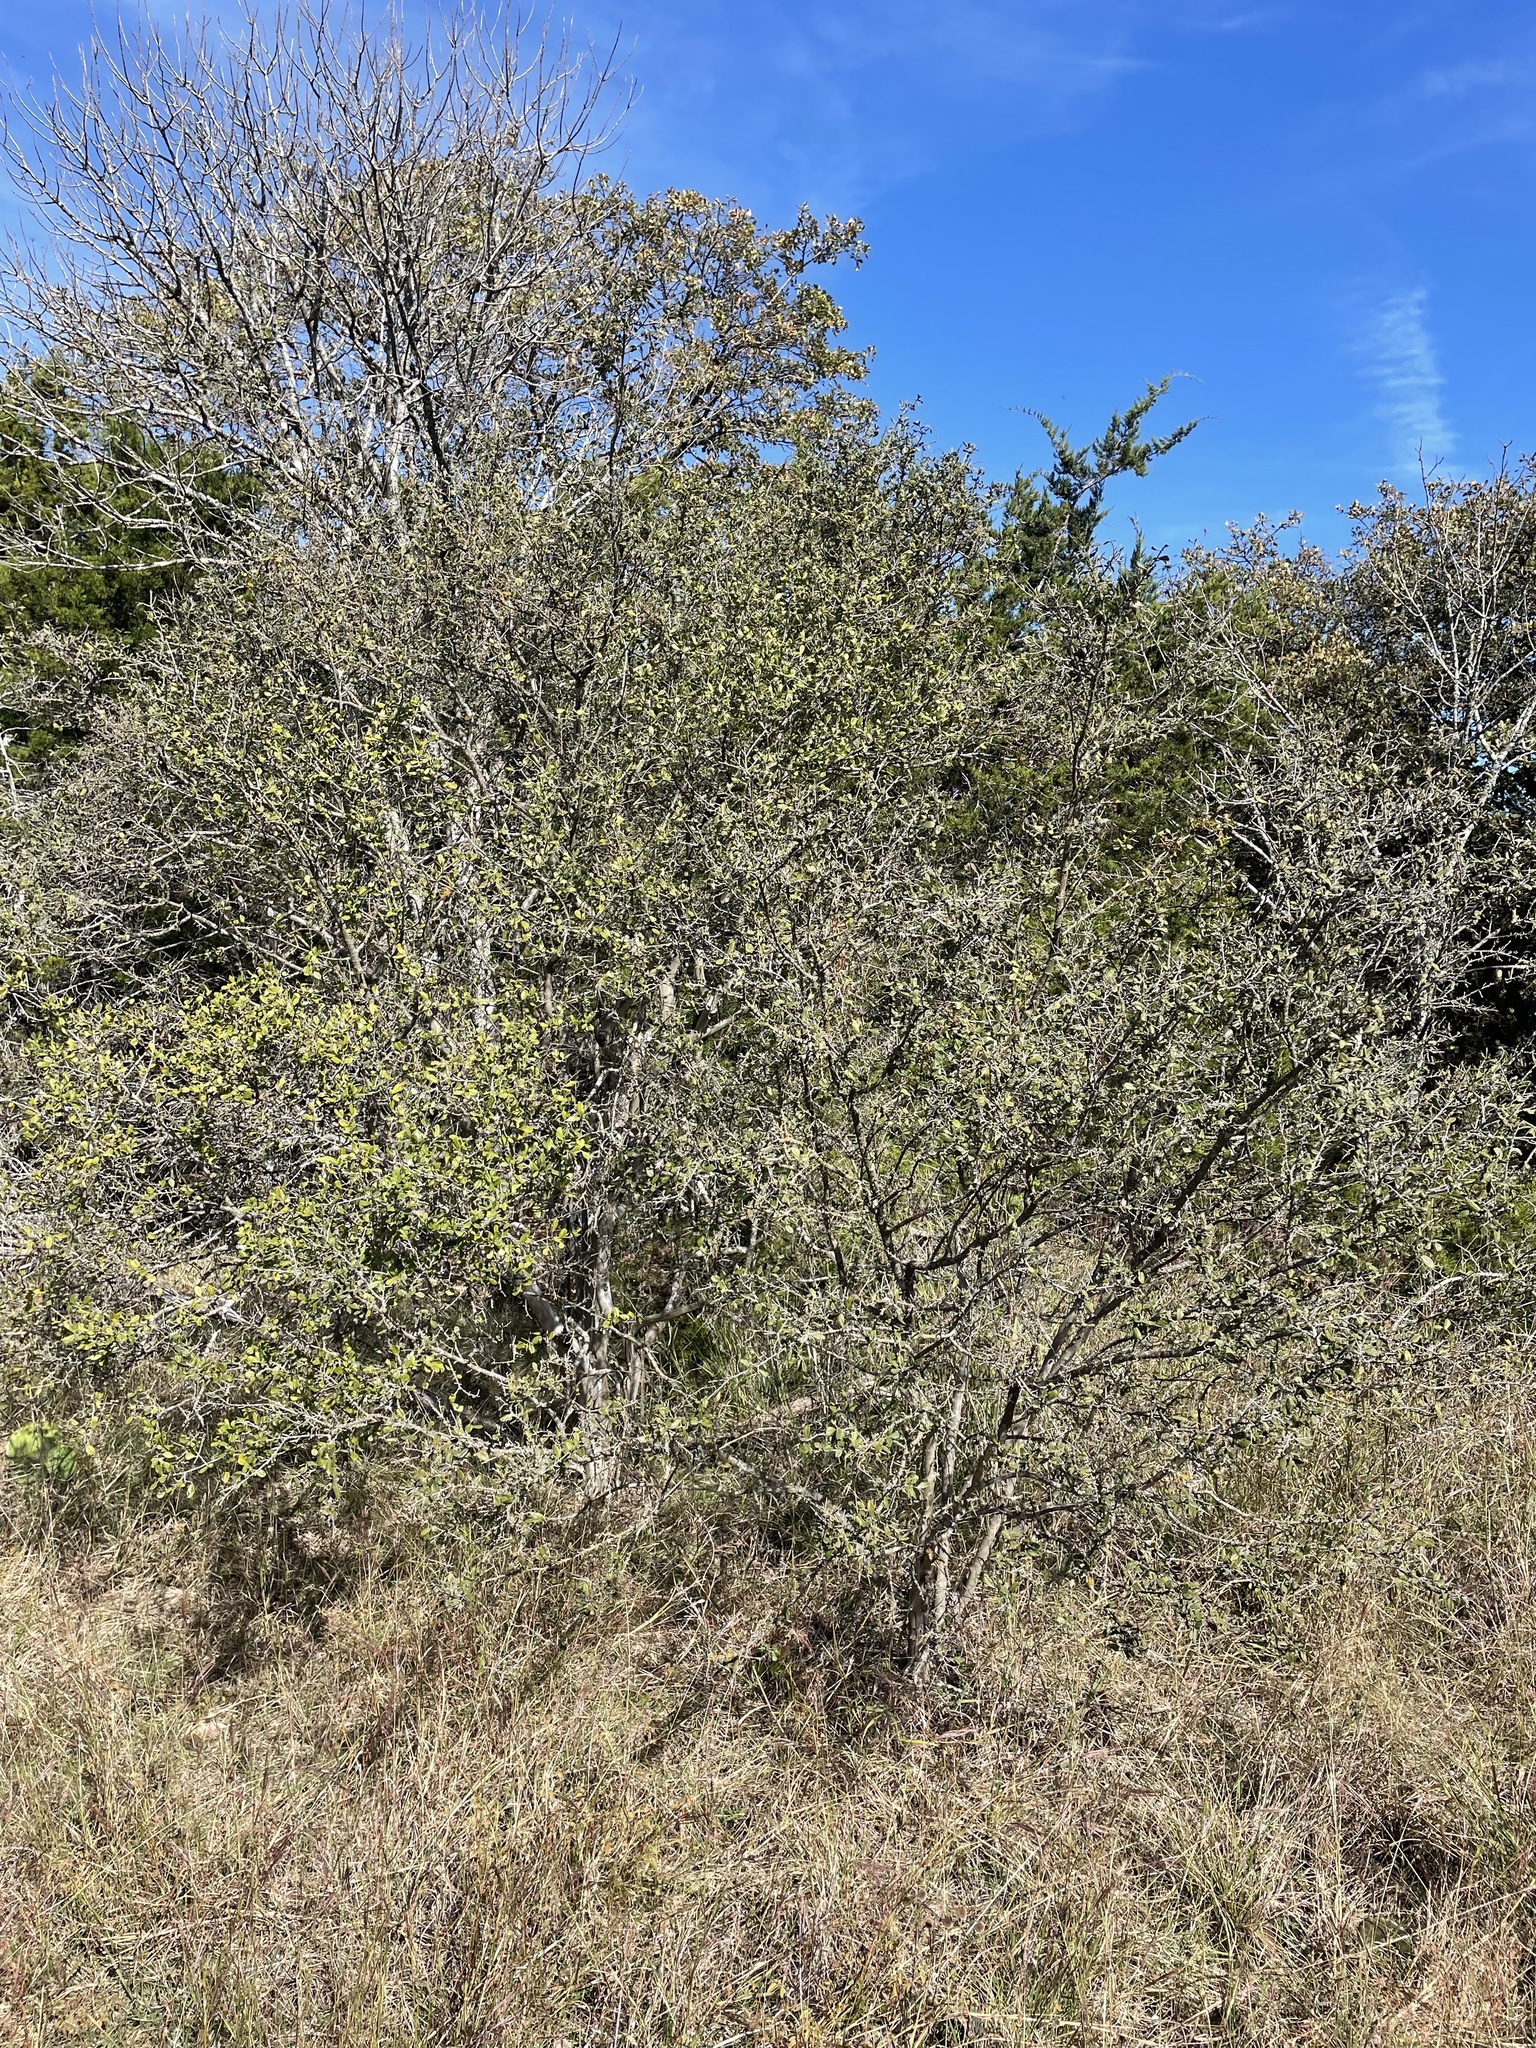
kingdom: Plantae
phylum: Tracheophyta
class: Magnoliopsida
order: Ericales
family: Ebenaceae
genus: Diospyros
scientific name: Diospyros texana
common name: Texas persimmon
